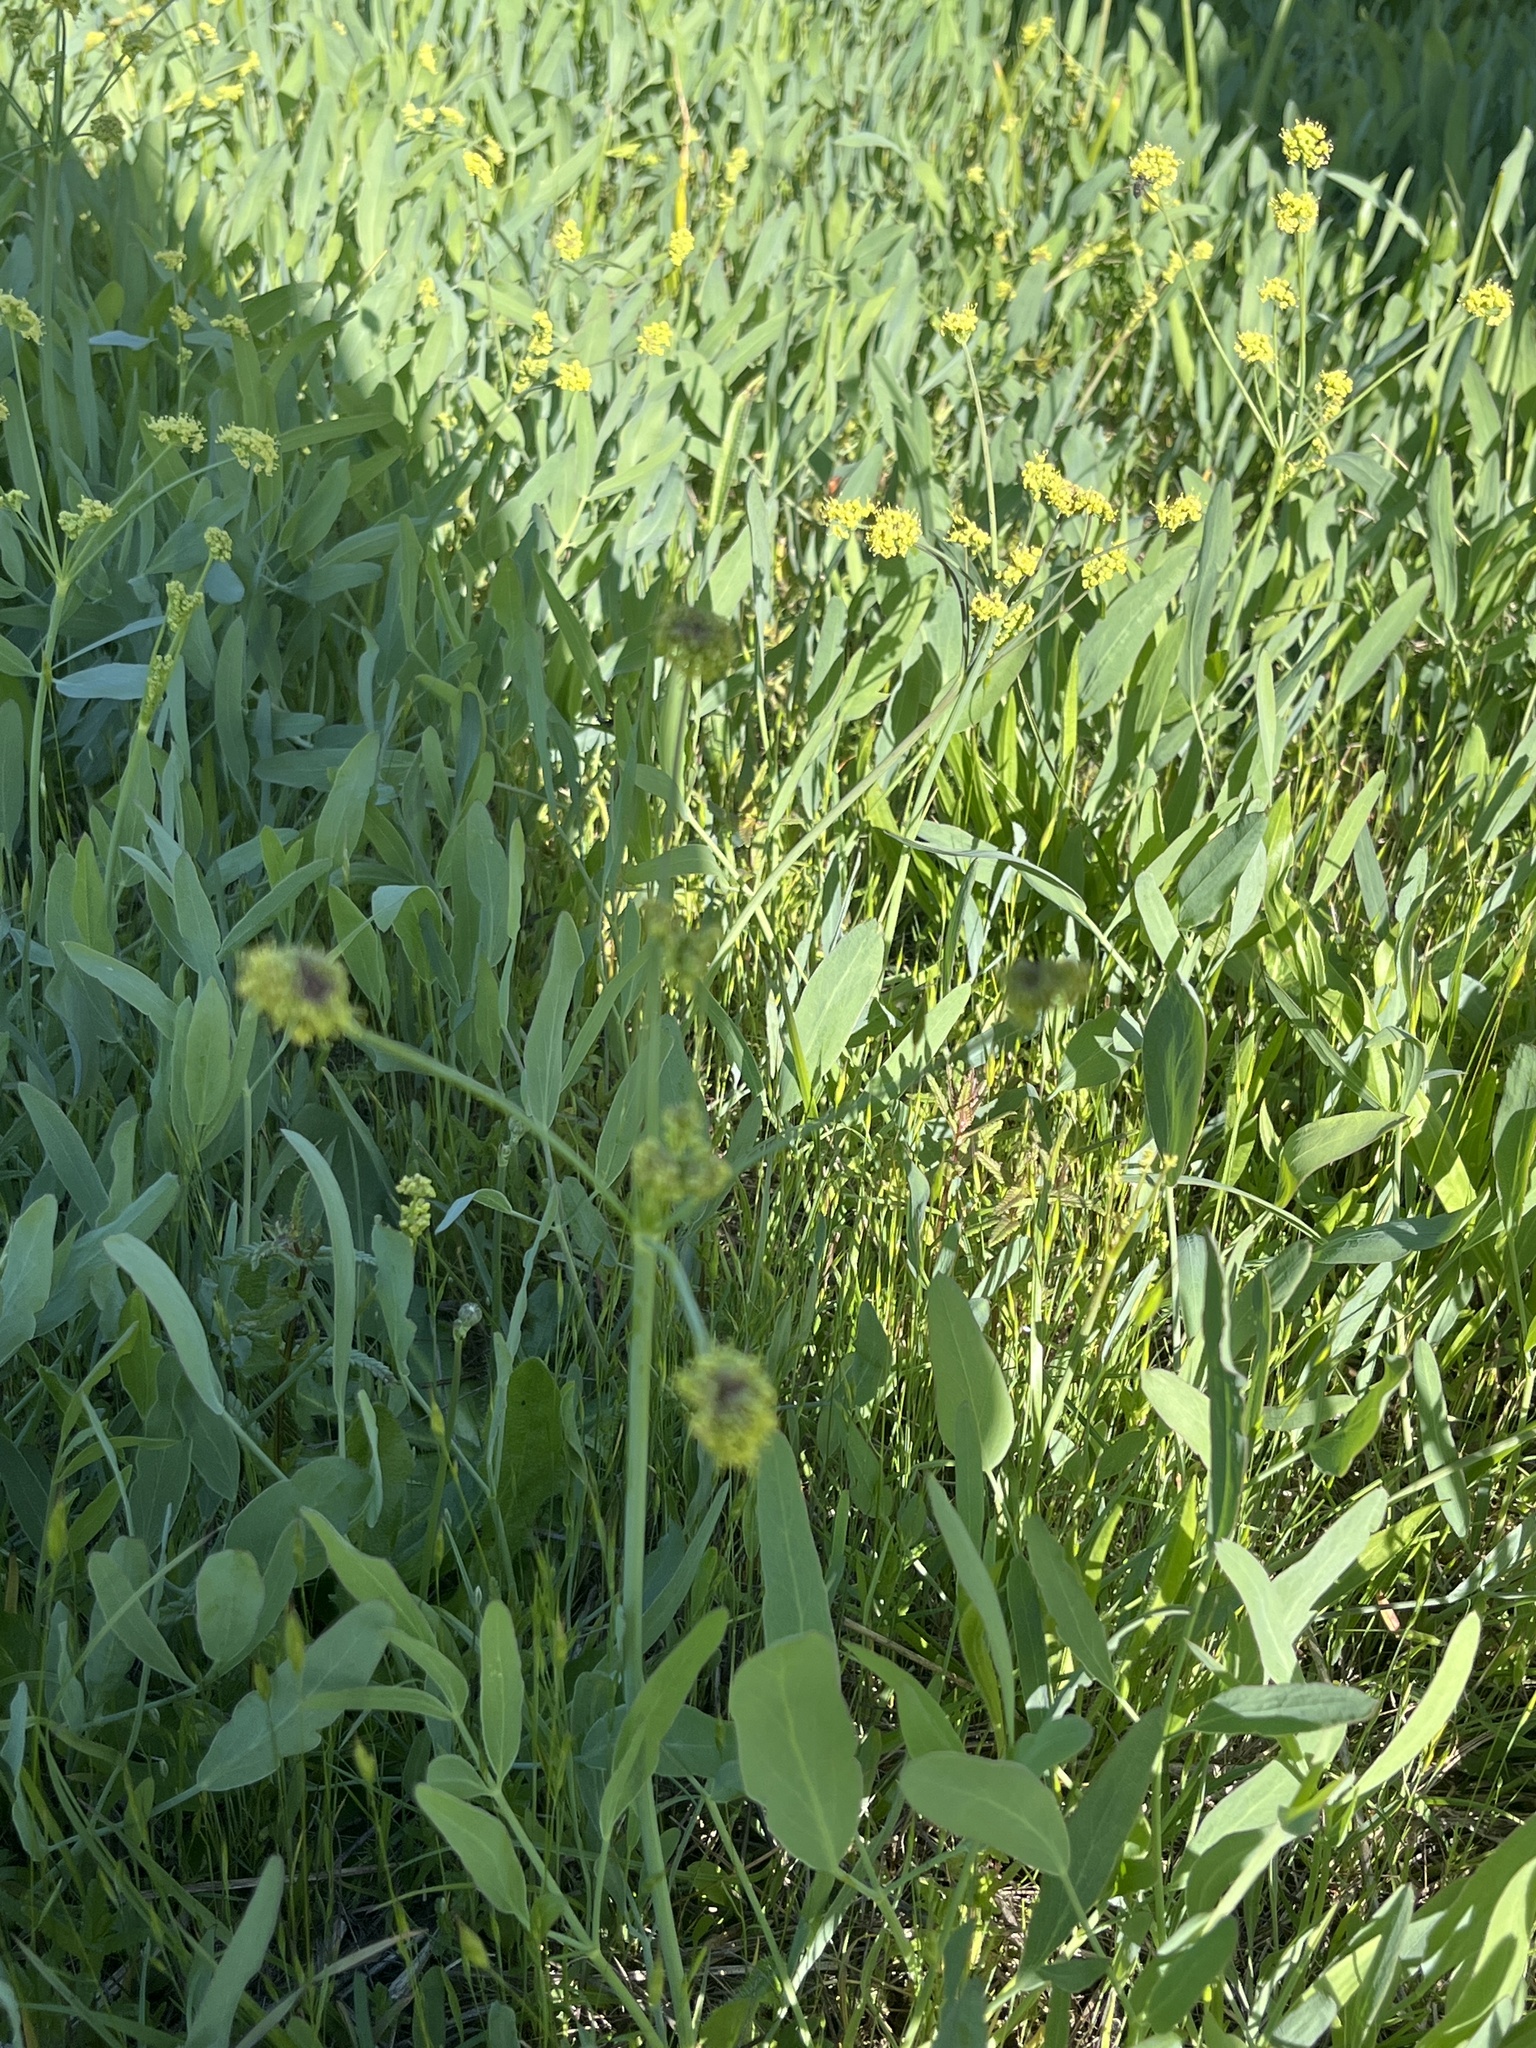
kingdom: Plantae
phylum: Tracheophyta
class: Magnoliopsida
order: Apiales
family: Apiaceae
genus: Lomatium
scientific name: Lomatium nudicaule
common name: Pestle lomatium
